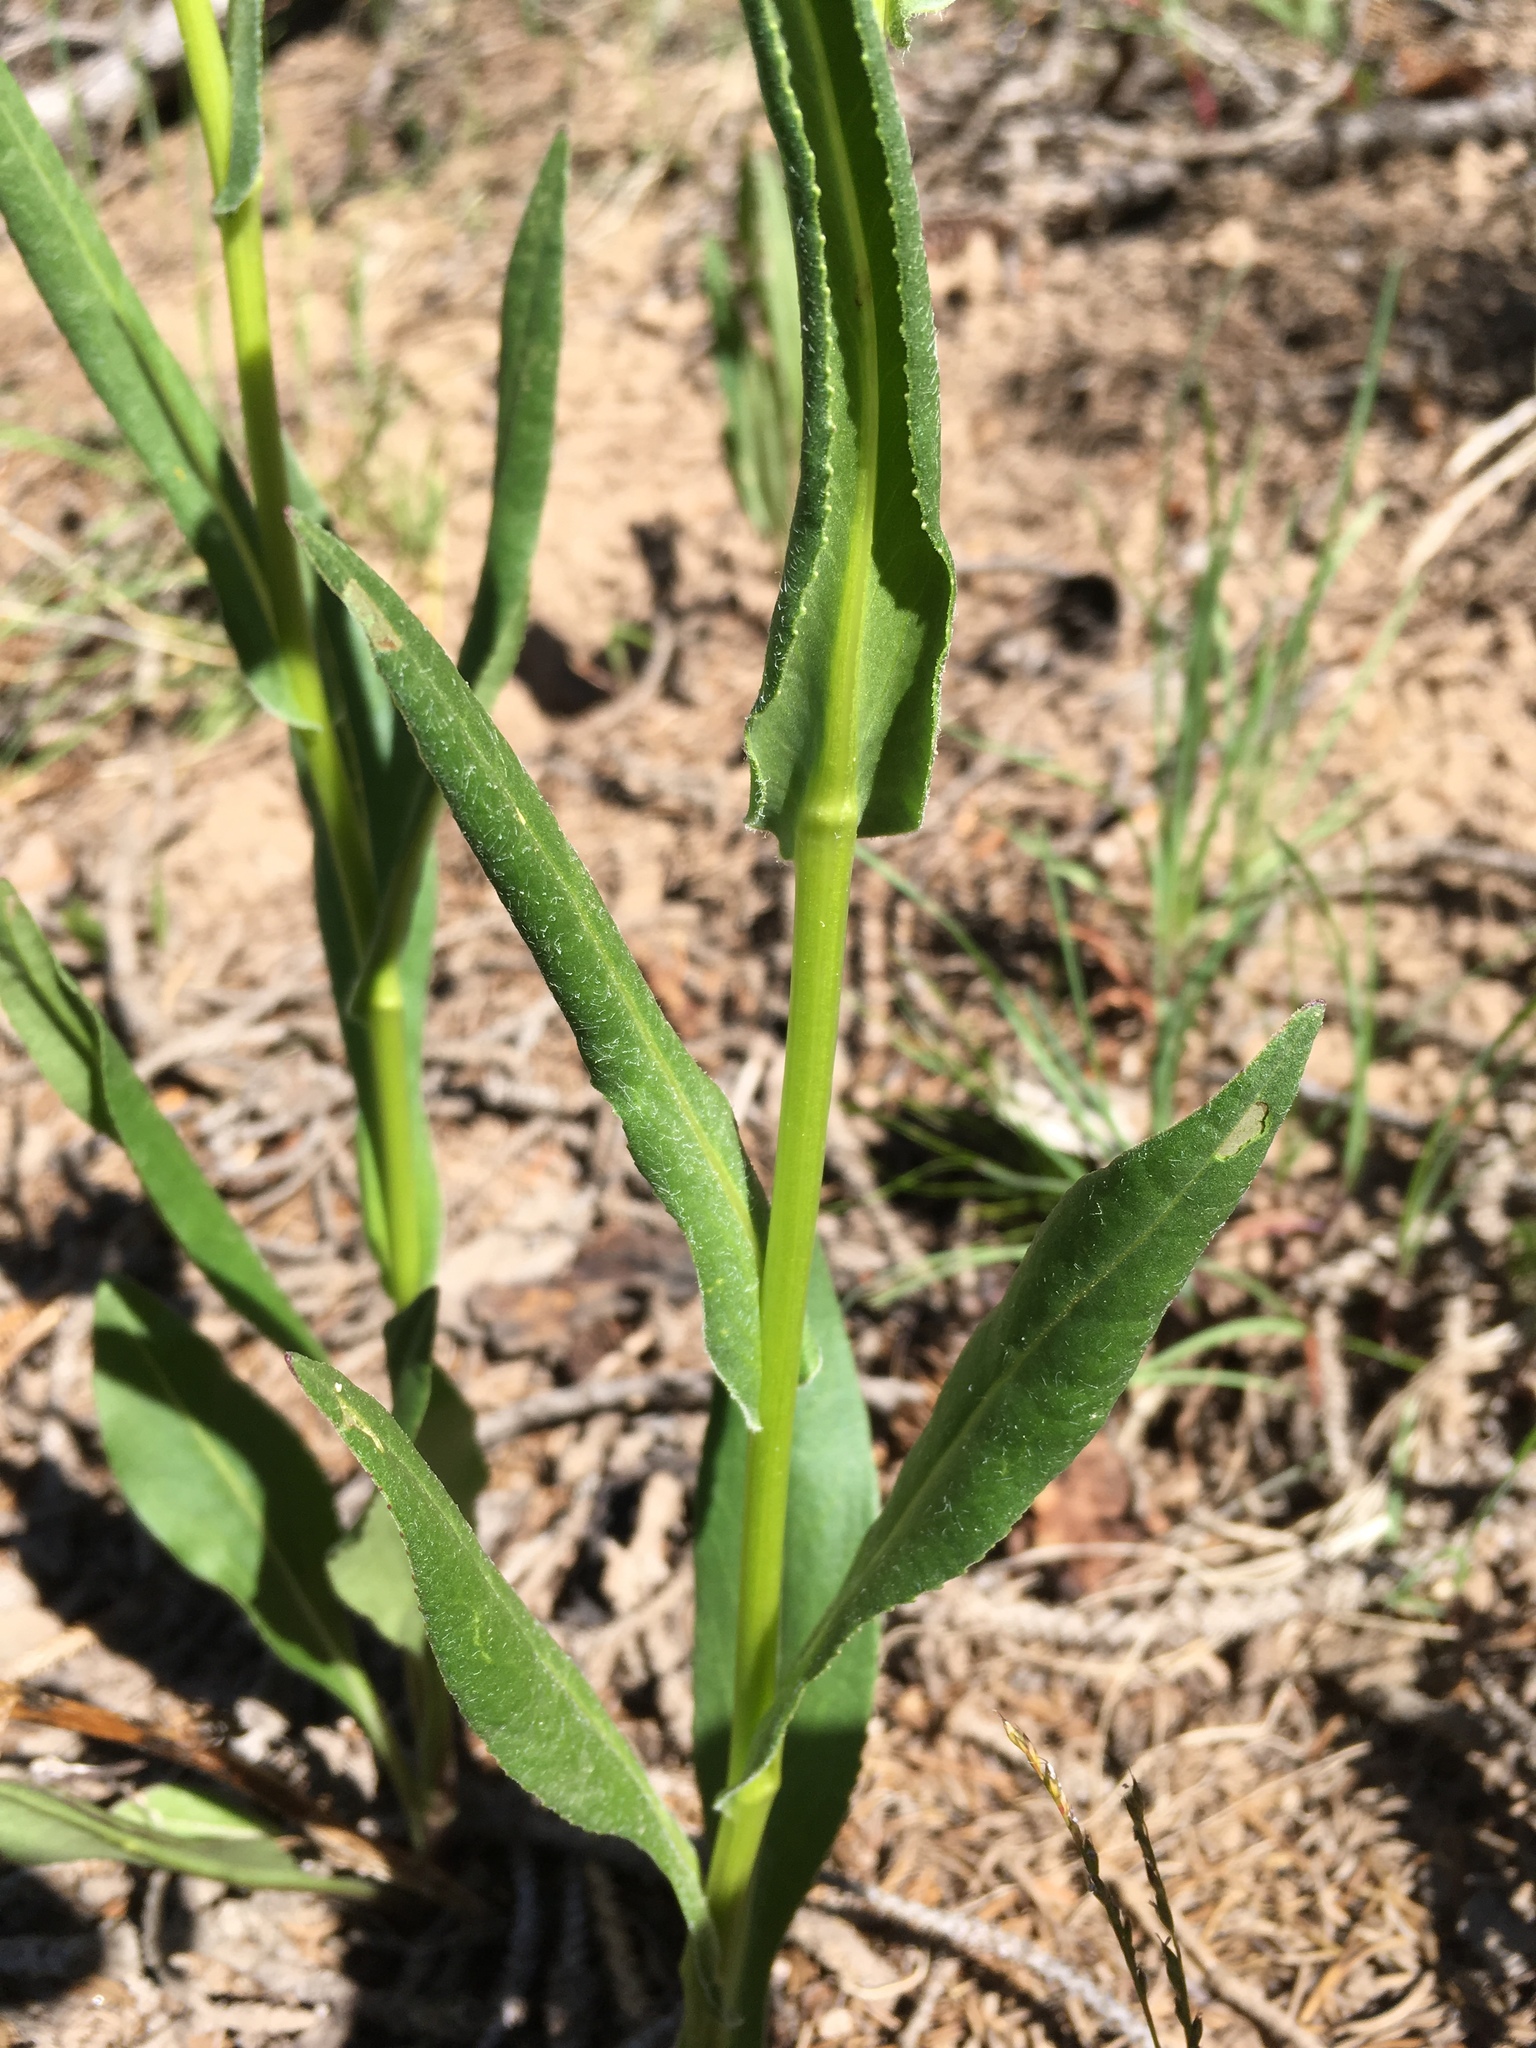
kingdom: Plantae
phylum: Tracheophyta
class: Magnoliopsida
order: Asterales
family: Asteraceae
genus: Senecio
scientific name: Senecio bigelovii
